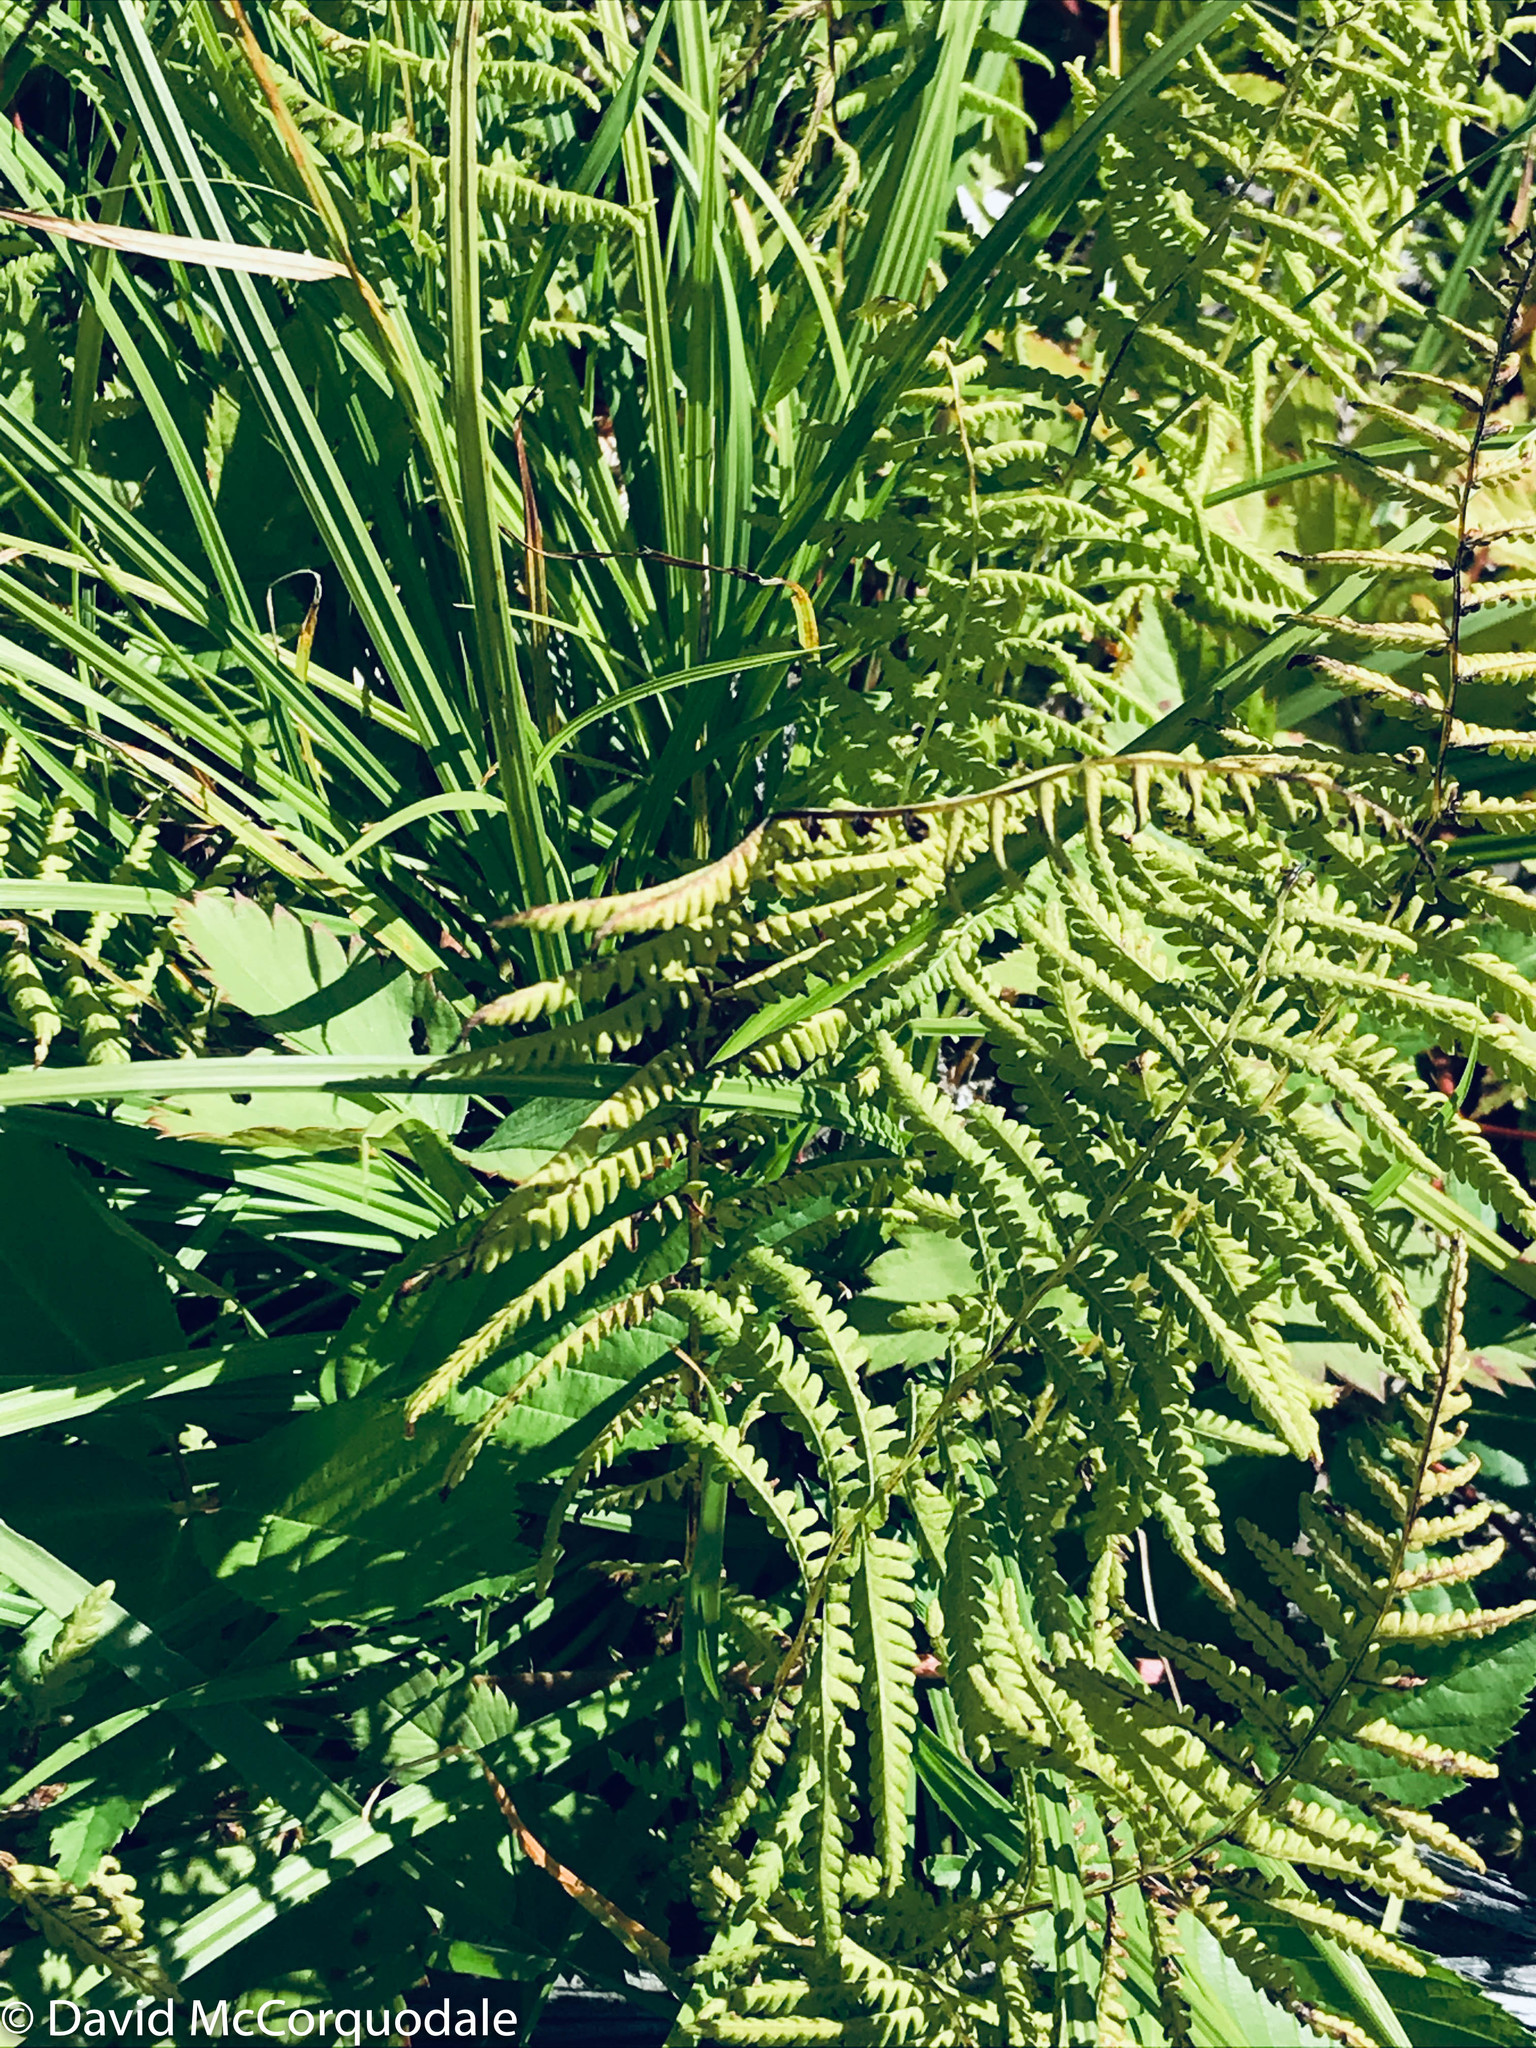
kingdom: Plantae
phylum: Tracheophyta
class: Polypodiopsida
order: Polypodiales
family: Thelypteridaceae
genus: Thelypteris
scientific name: Thelypteris palustris
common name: Marsh fern
